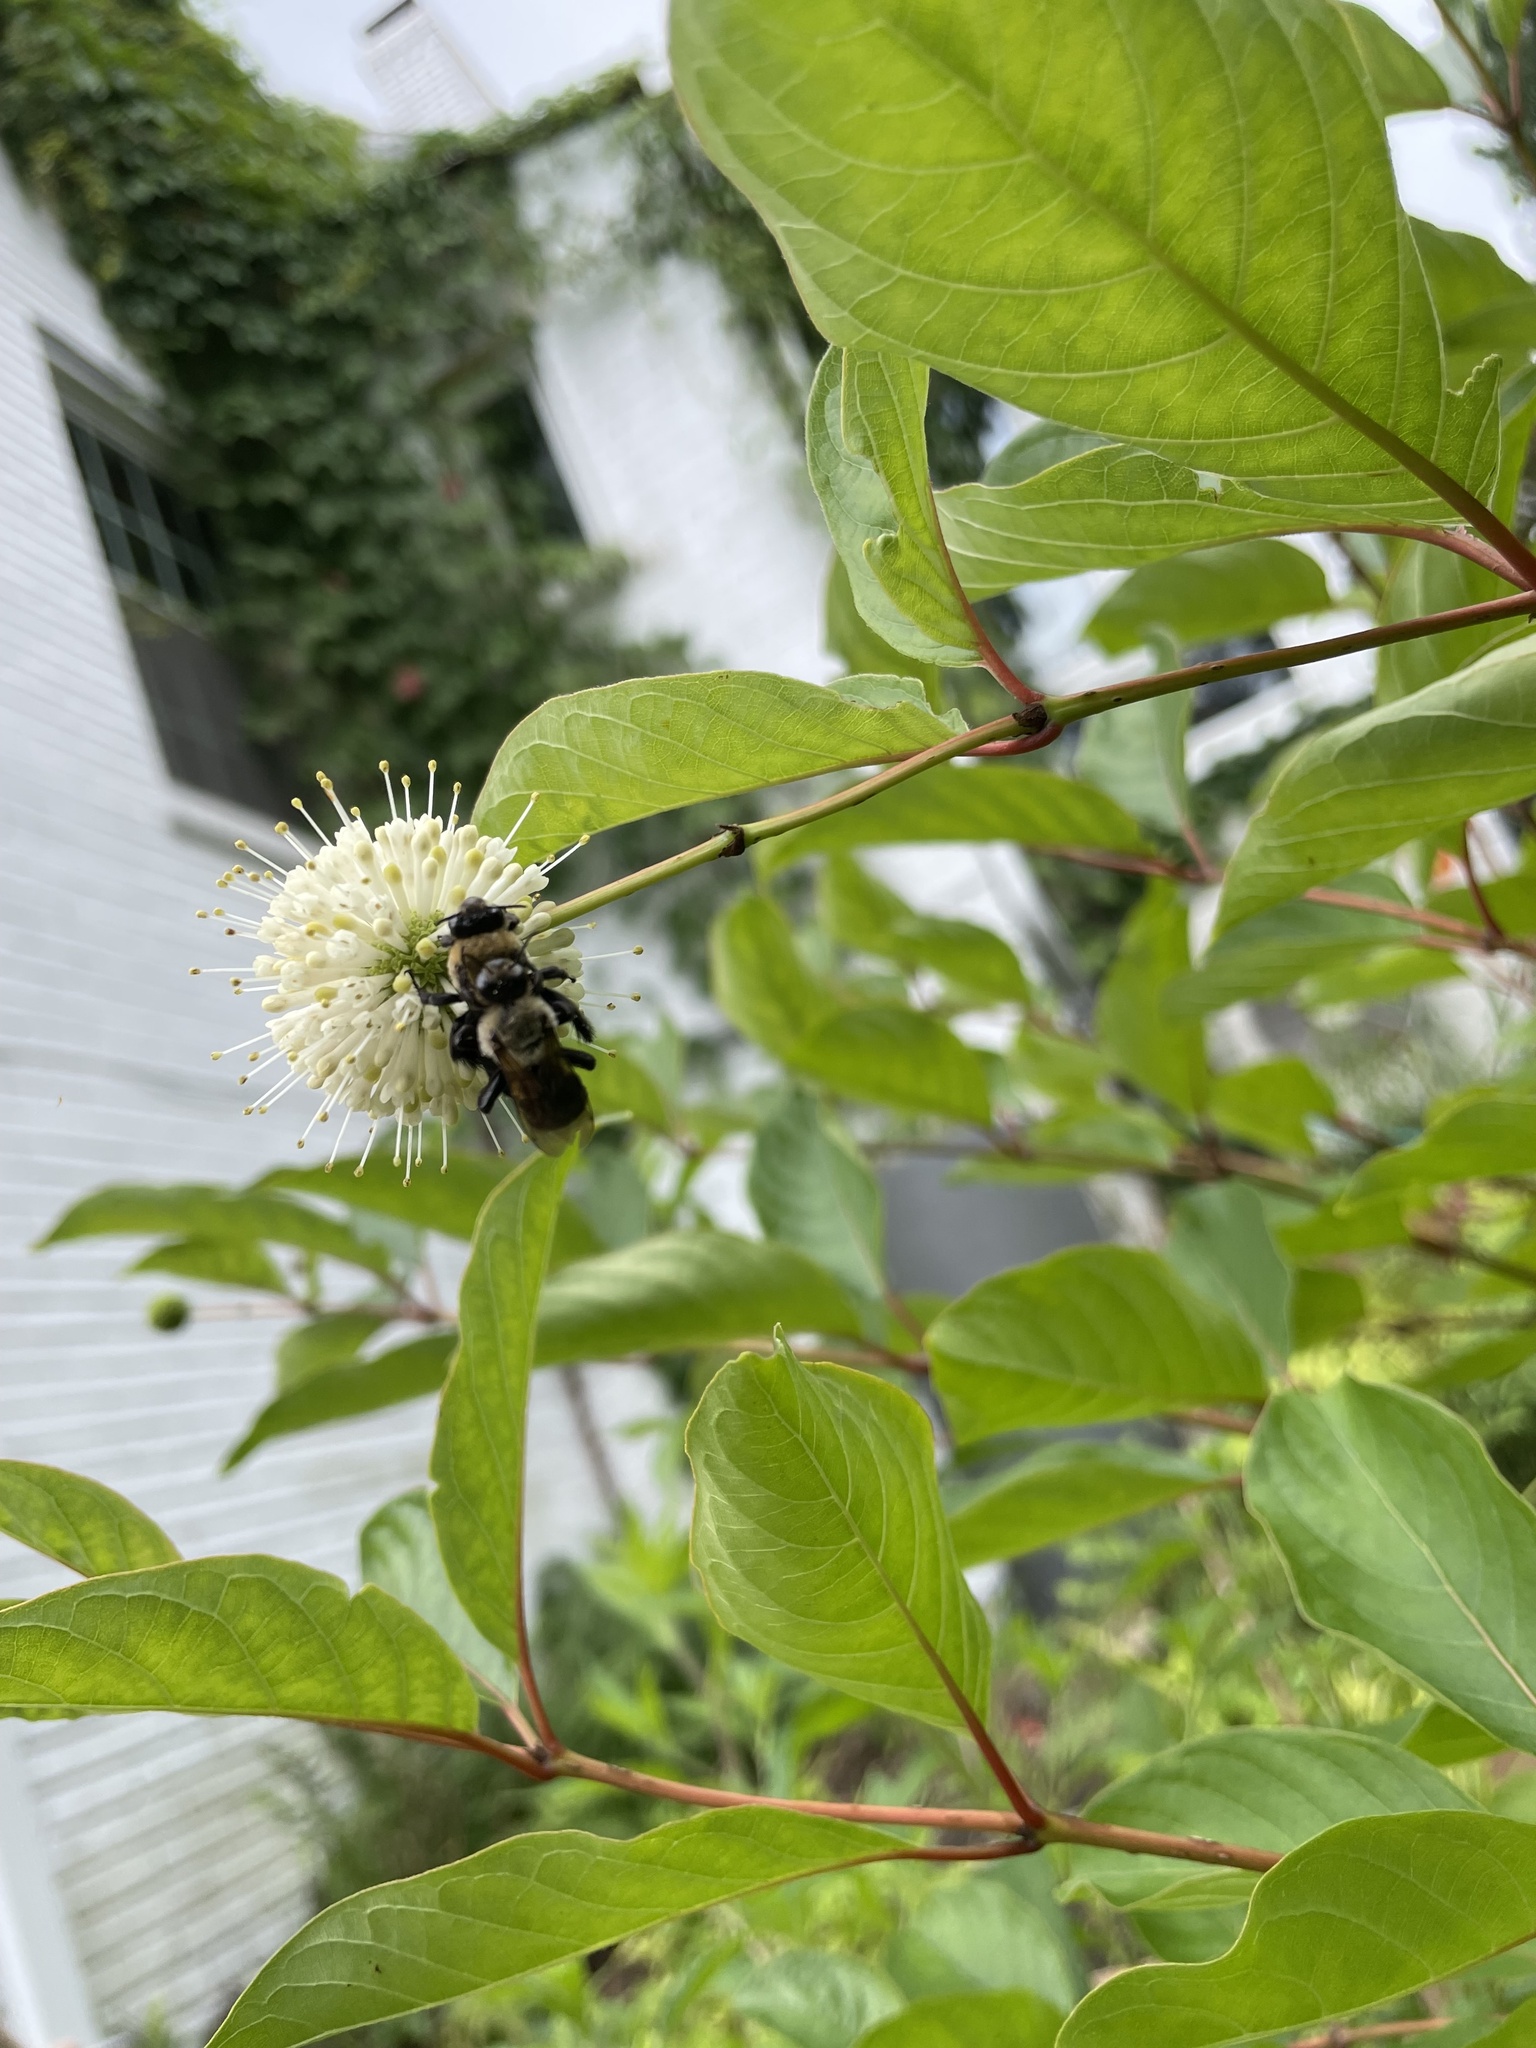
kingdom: Animalia
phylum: Arthropoda
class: Insecta
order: Hymenoptera
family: Apidae
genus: Ptilothrix
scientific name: Ptilothrix bombiformis
